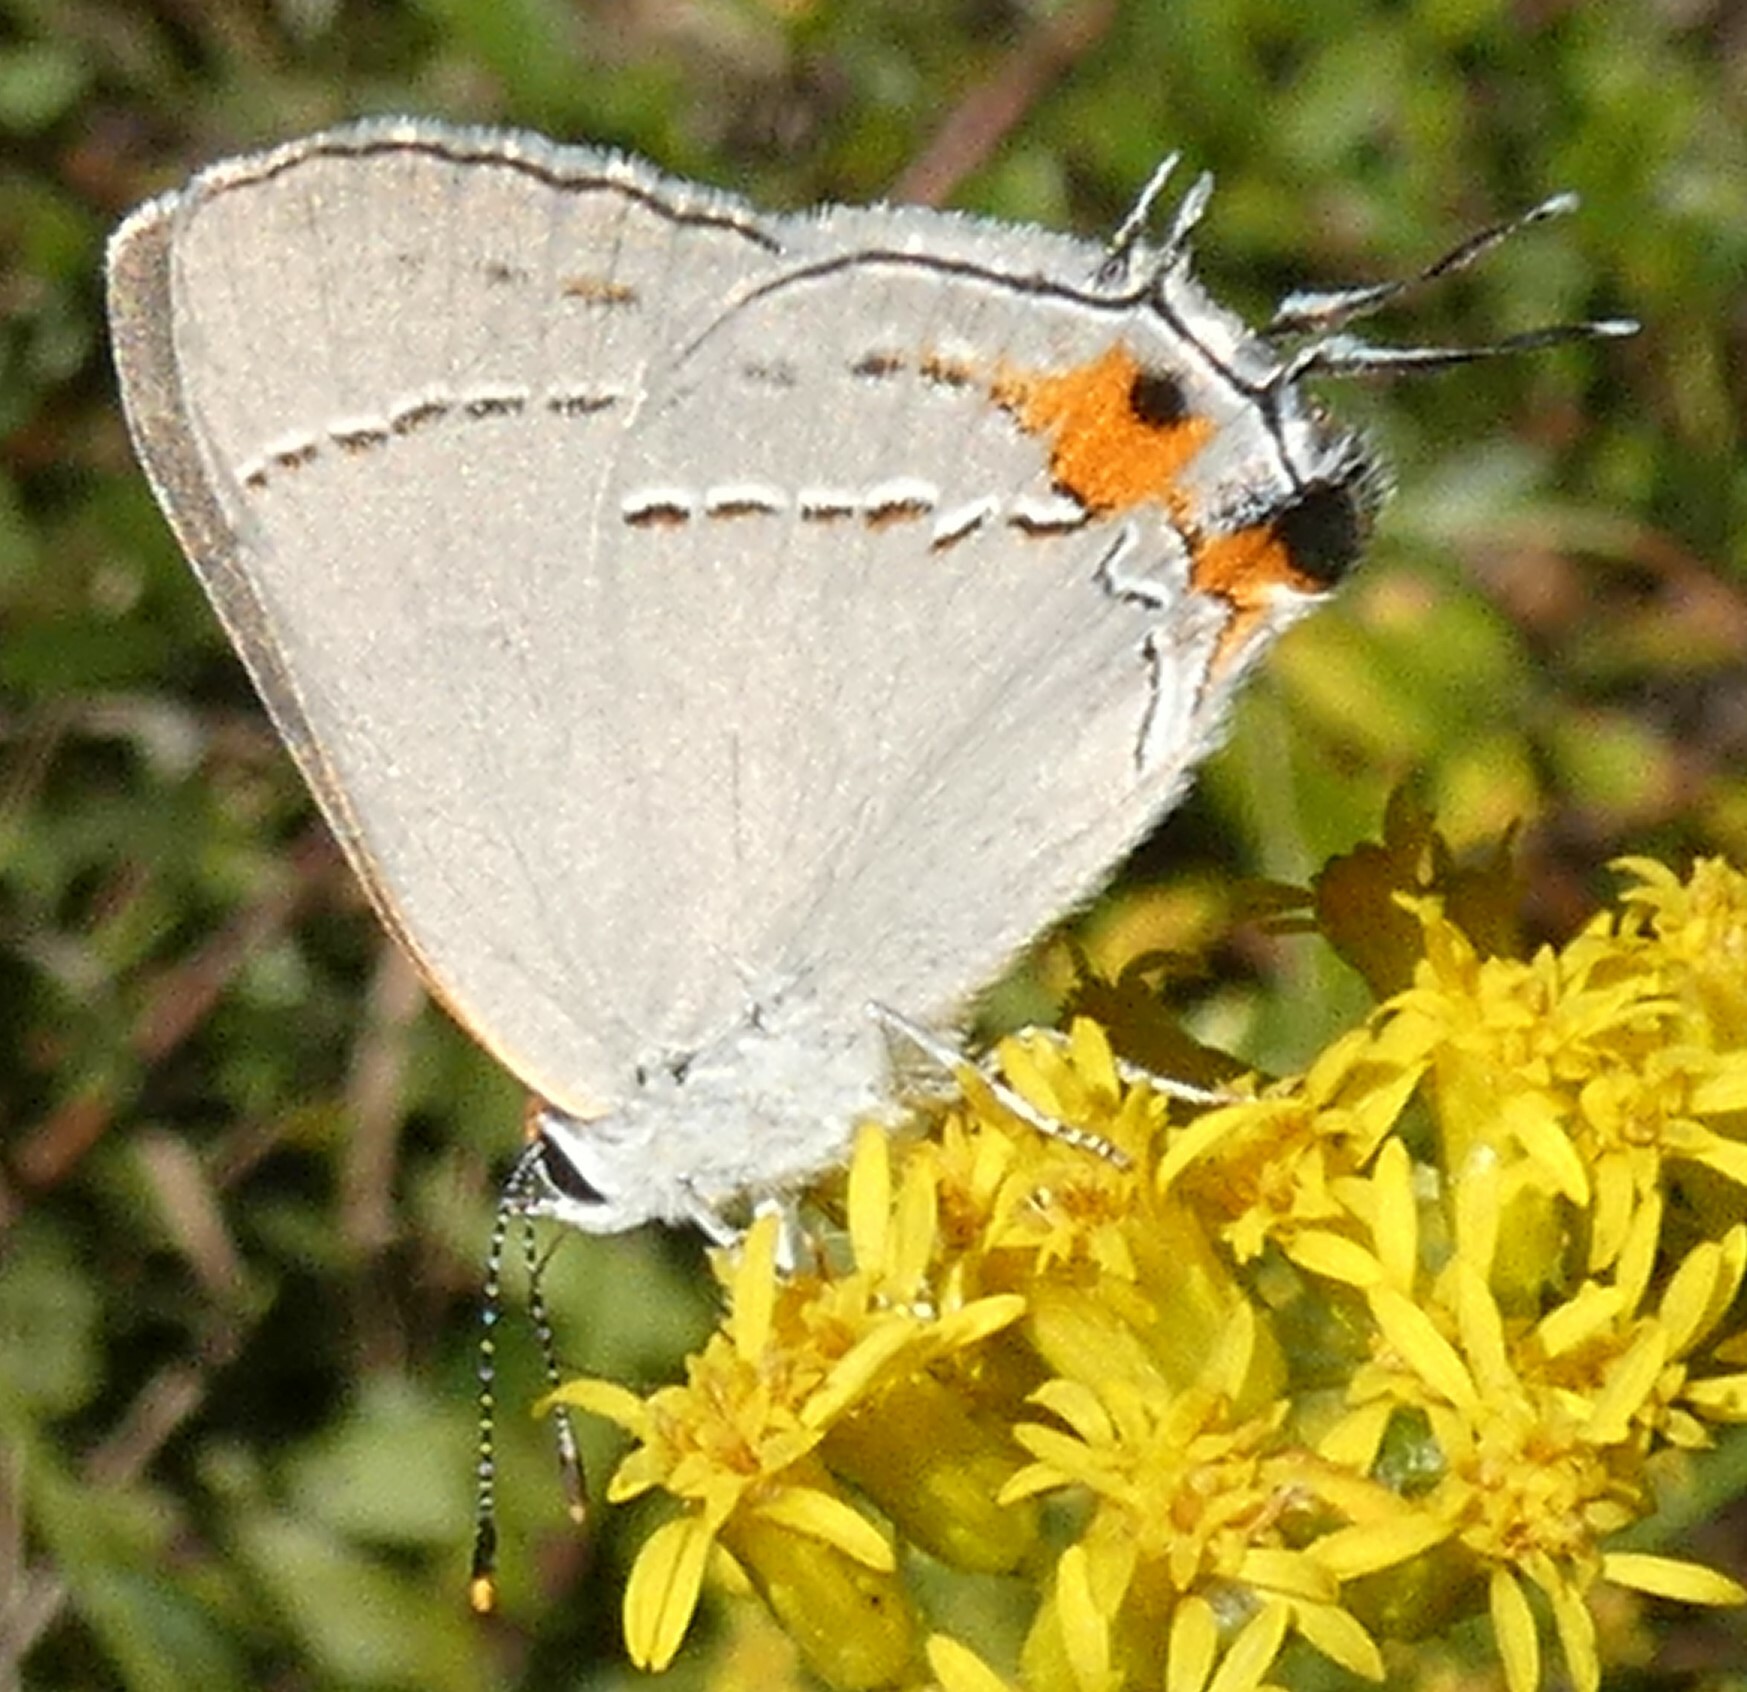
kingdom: Animalia
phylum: Arthropoda
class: Insecta
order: Lepidoptera
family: Lycaenidae
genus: Strymon
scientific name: Strymon melinus
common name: Gray hairstreak
